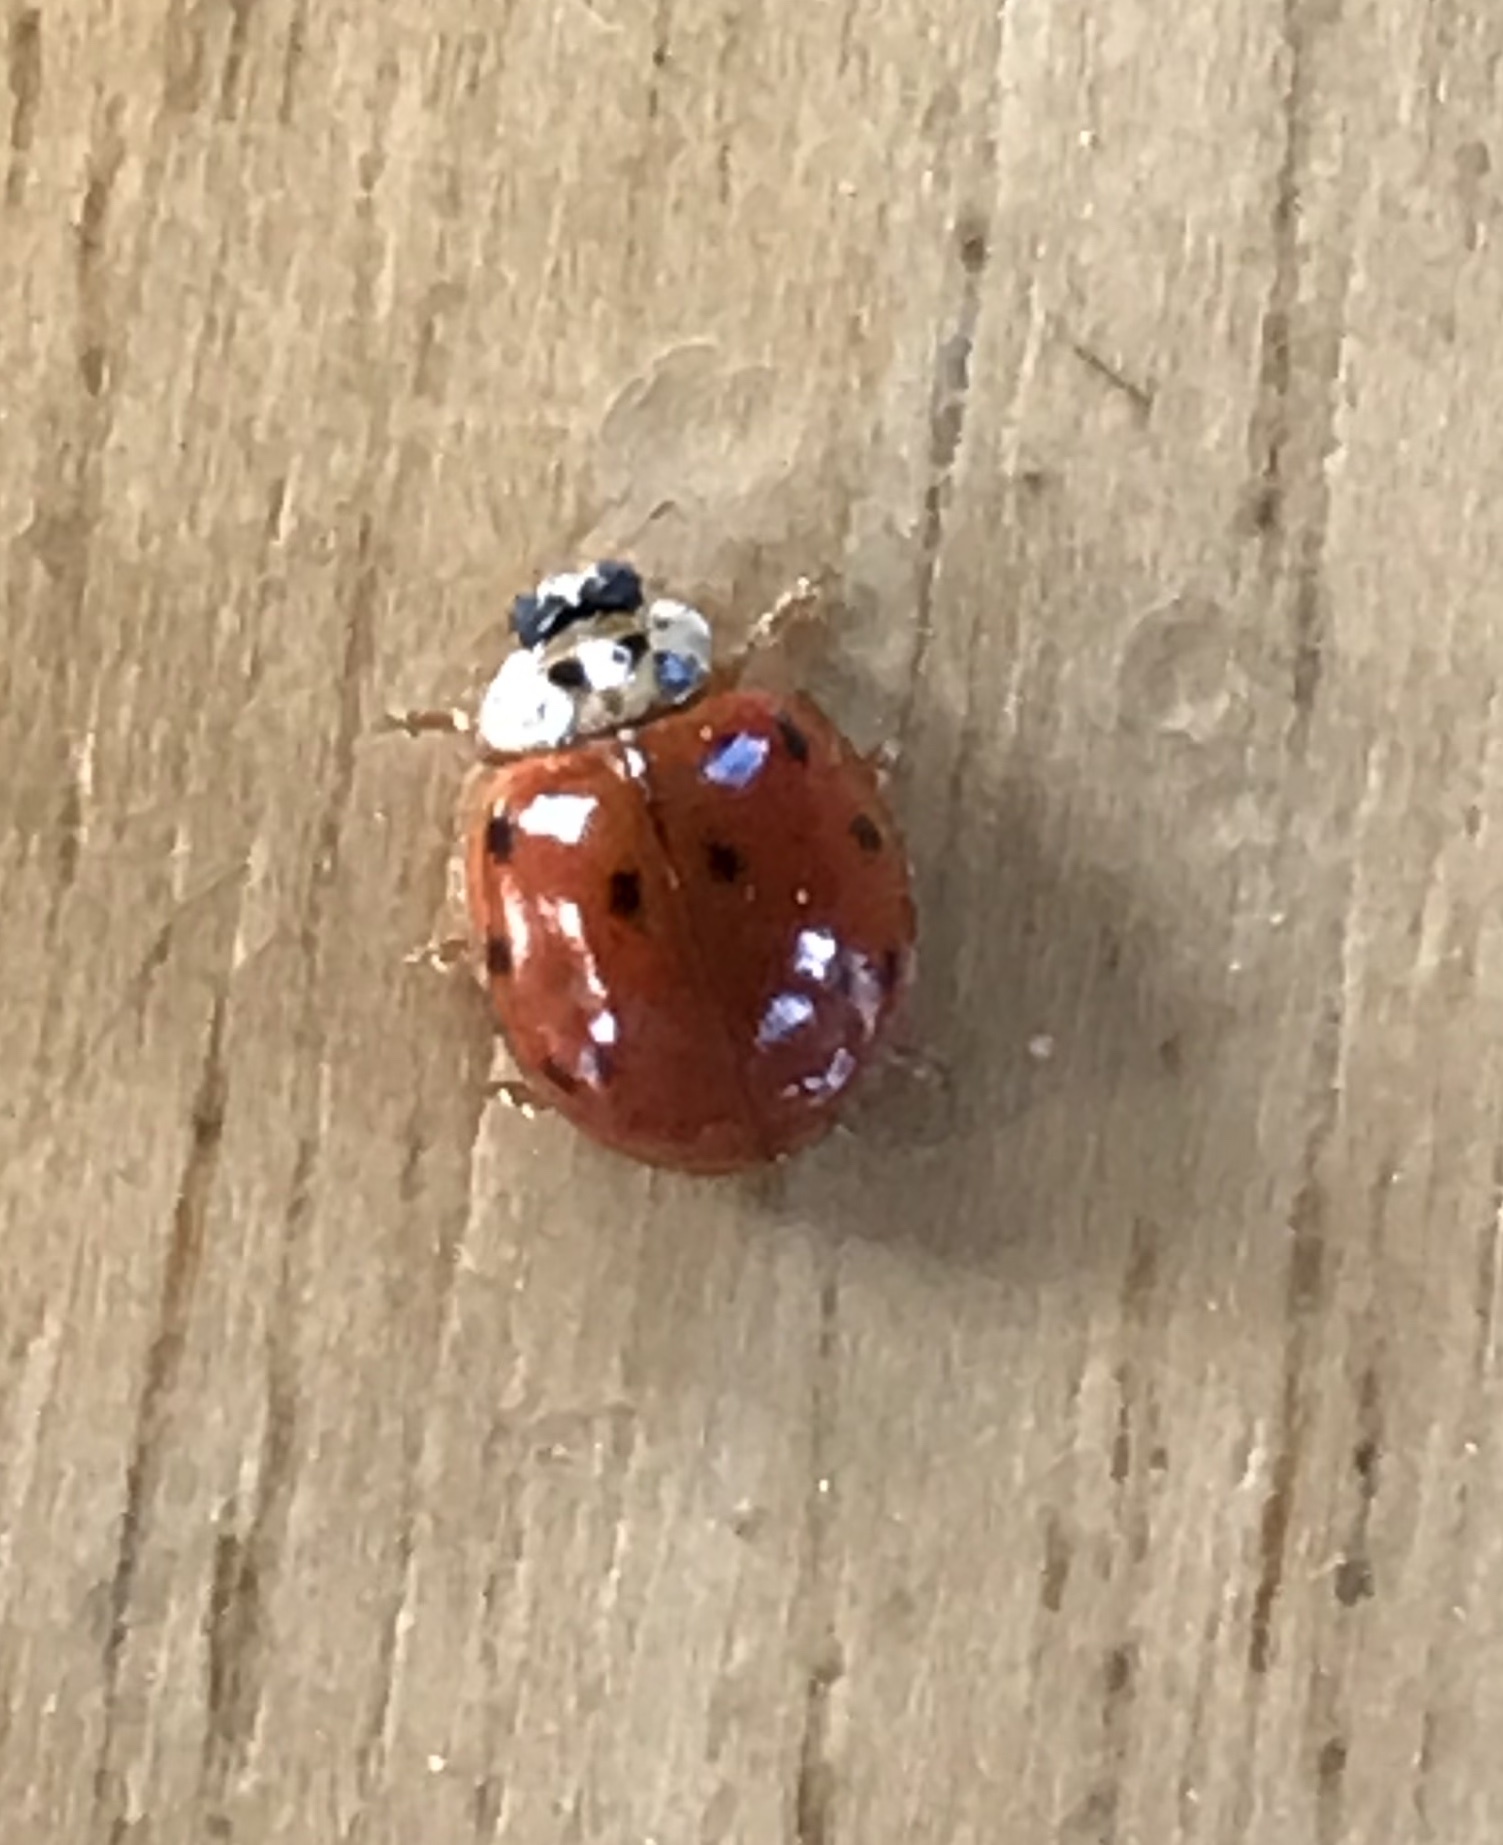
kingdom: Animalia
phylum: Arthropoda
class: Insecta
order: Coleoptera
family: Coccinellidae
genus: Harmonia
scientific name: Harmonia axyridis
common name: Harlequin ladybird
